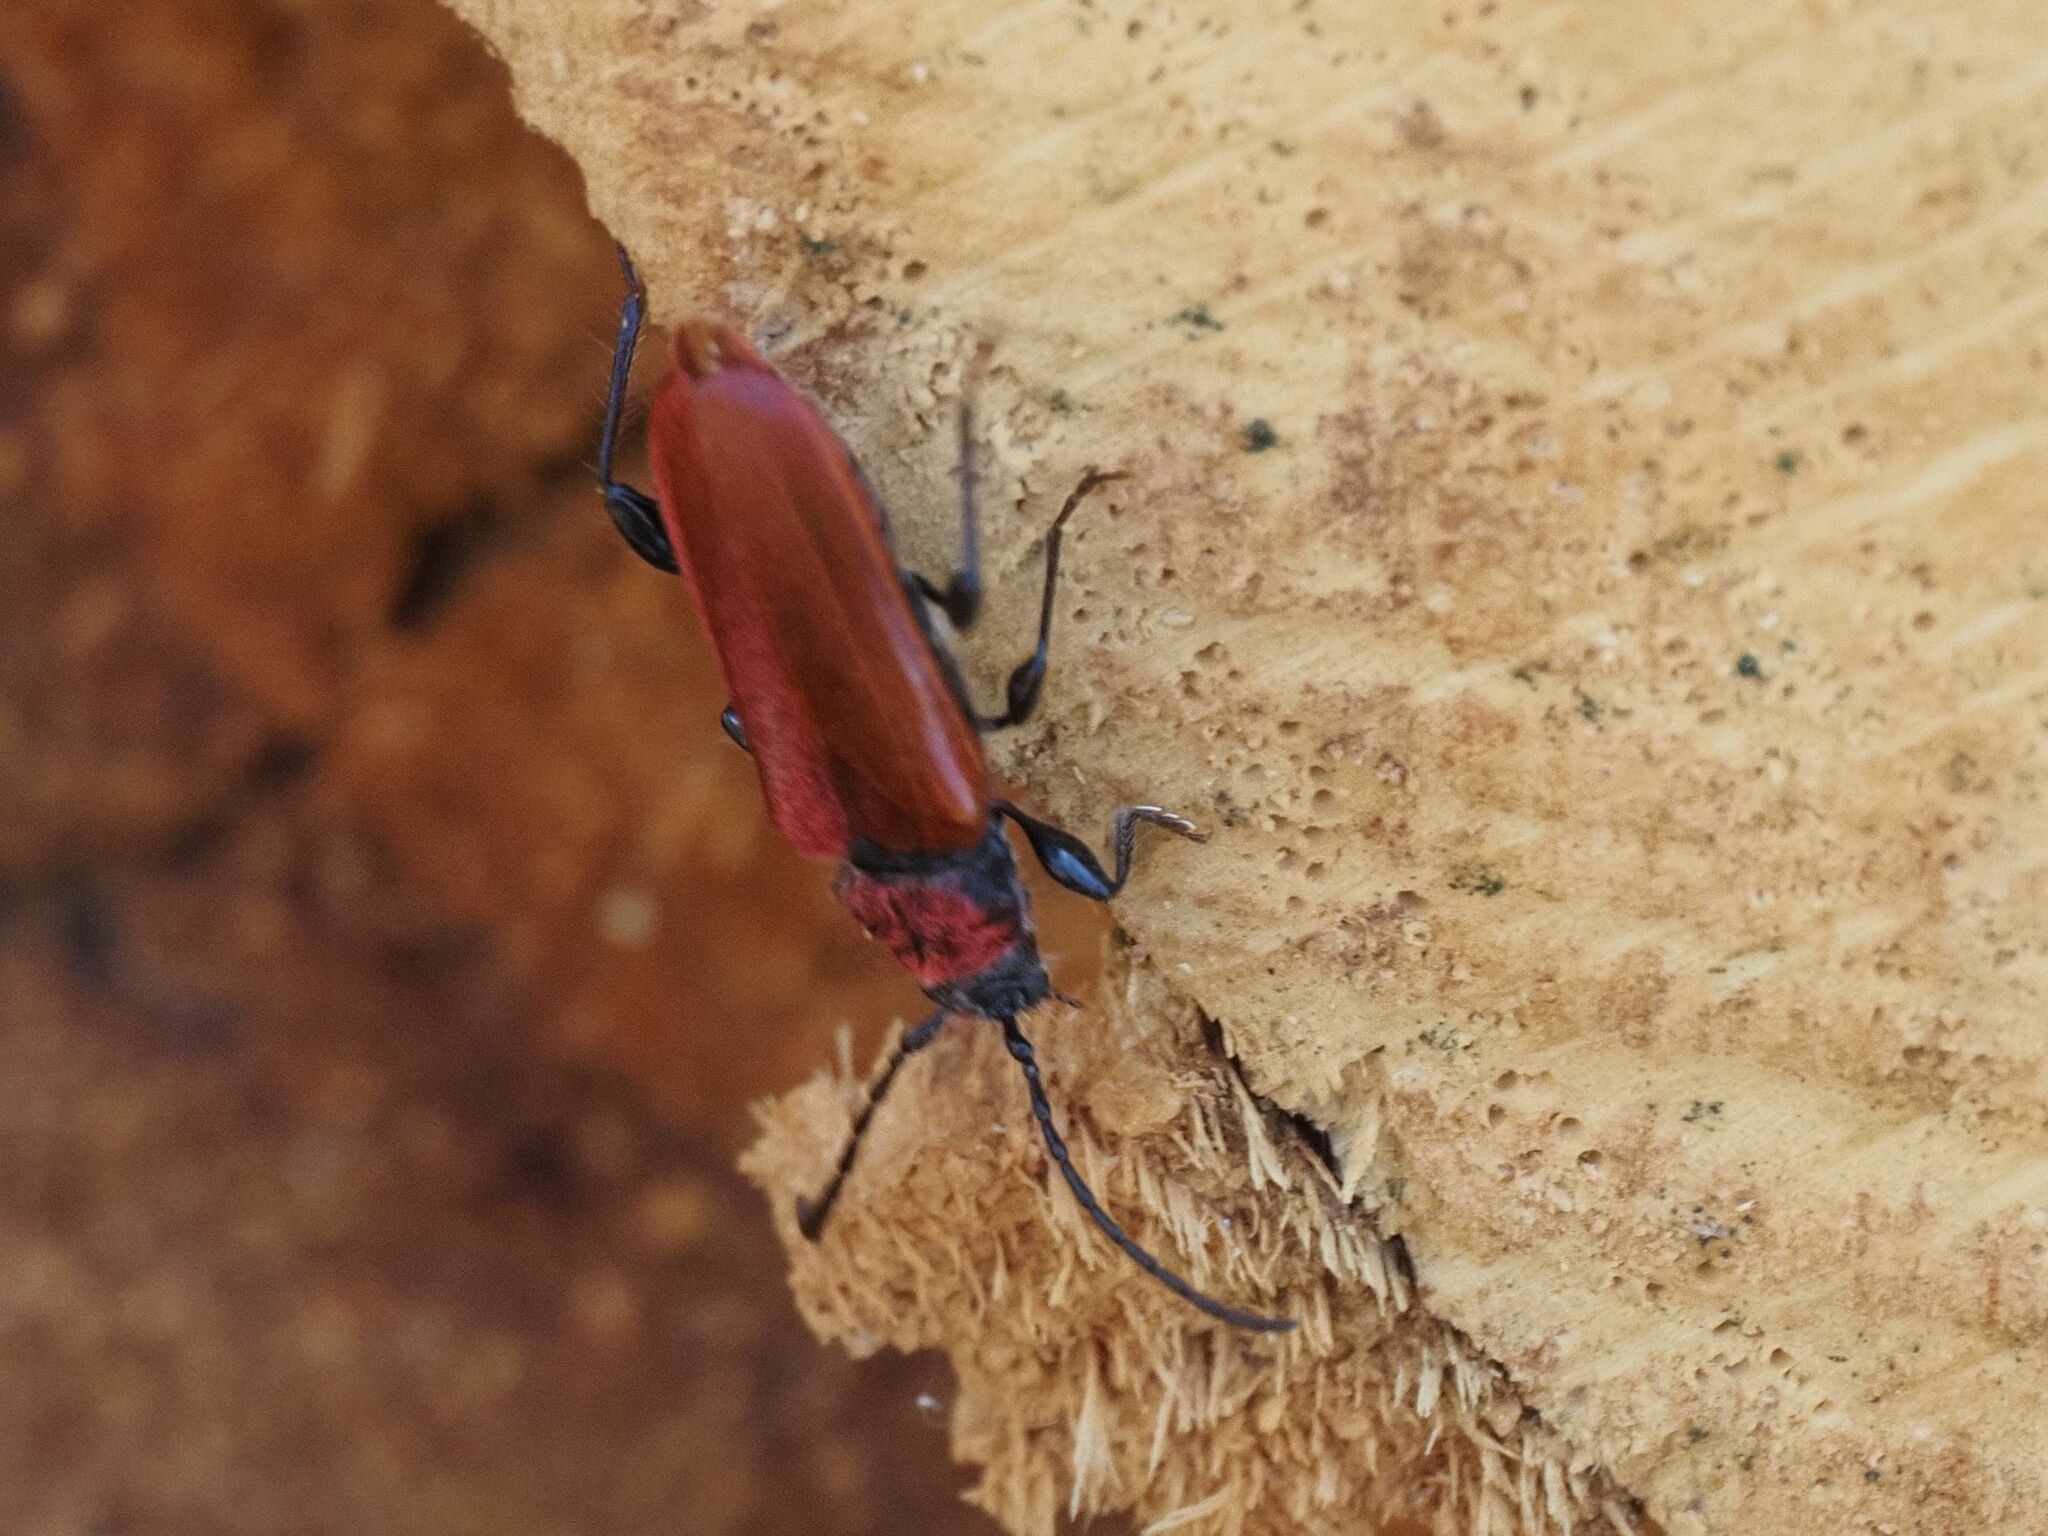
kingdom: Animalia
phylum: Arthropoda
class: Insecta
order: Coleoptera
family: Cerambycidae
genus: Pyrrhidium
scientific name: Pyrrhidium sanguineum
